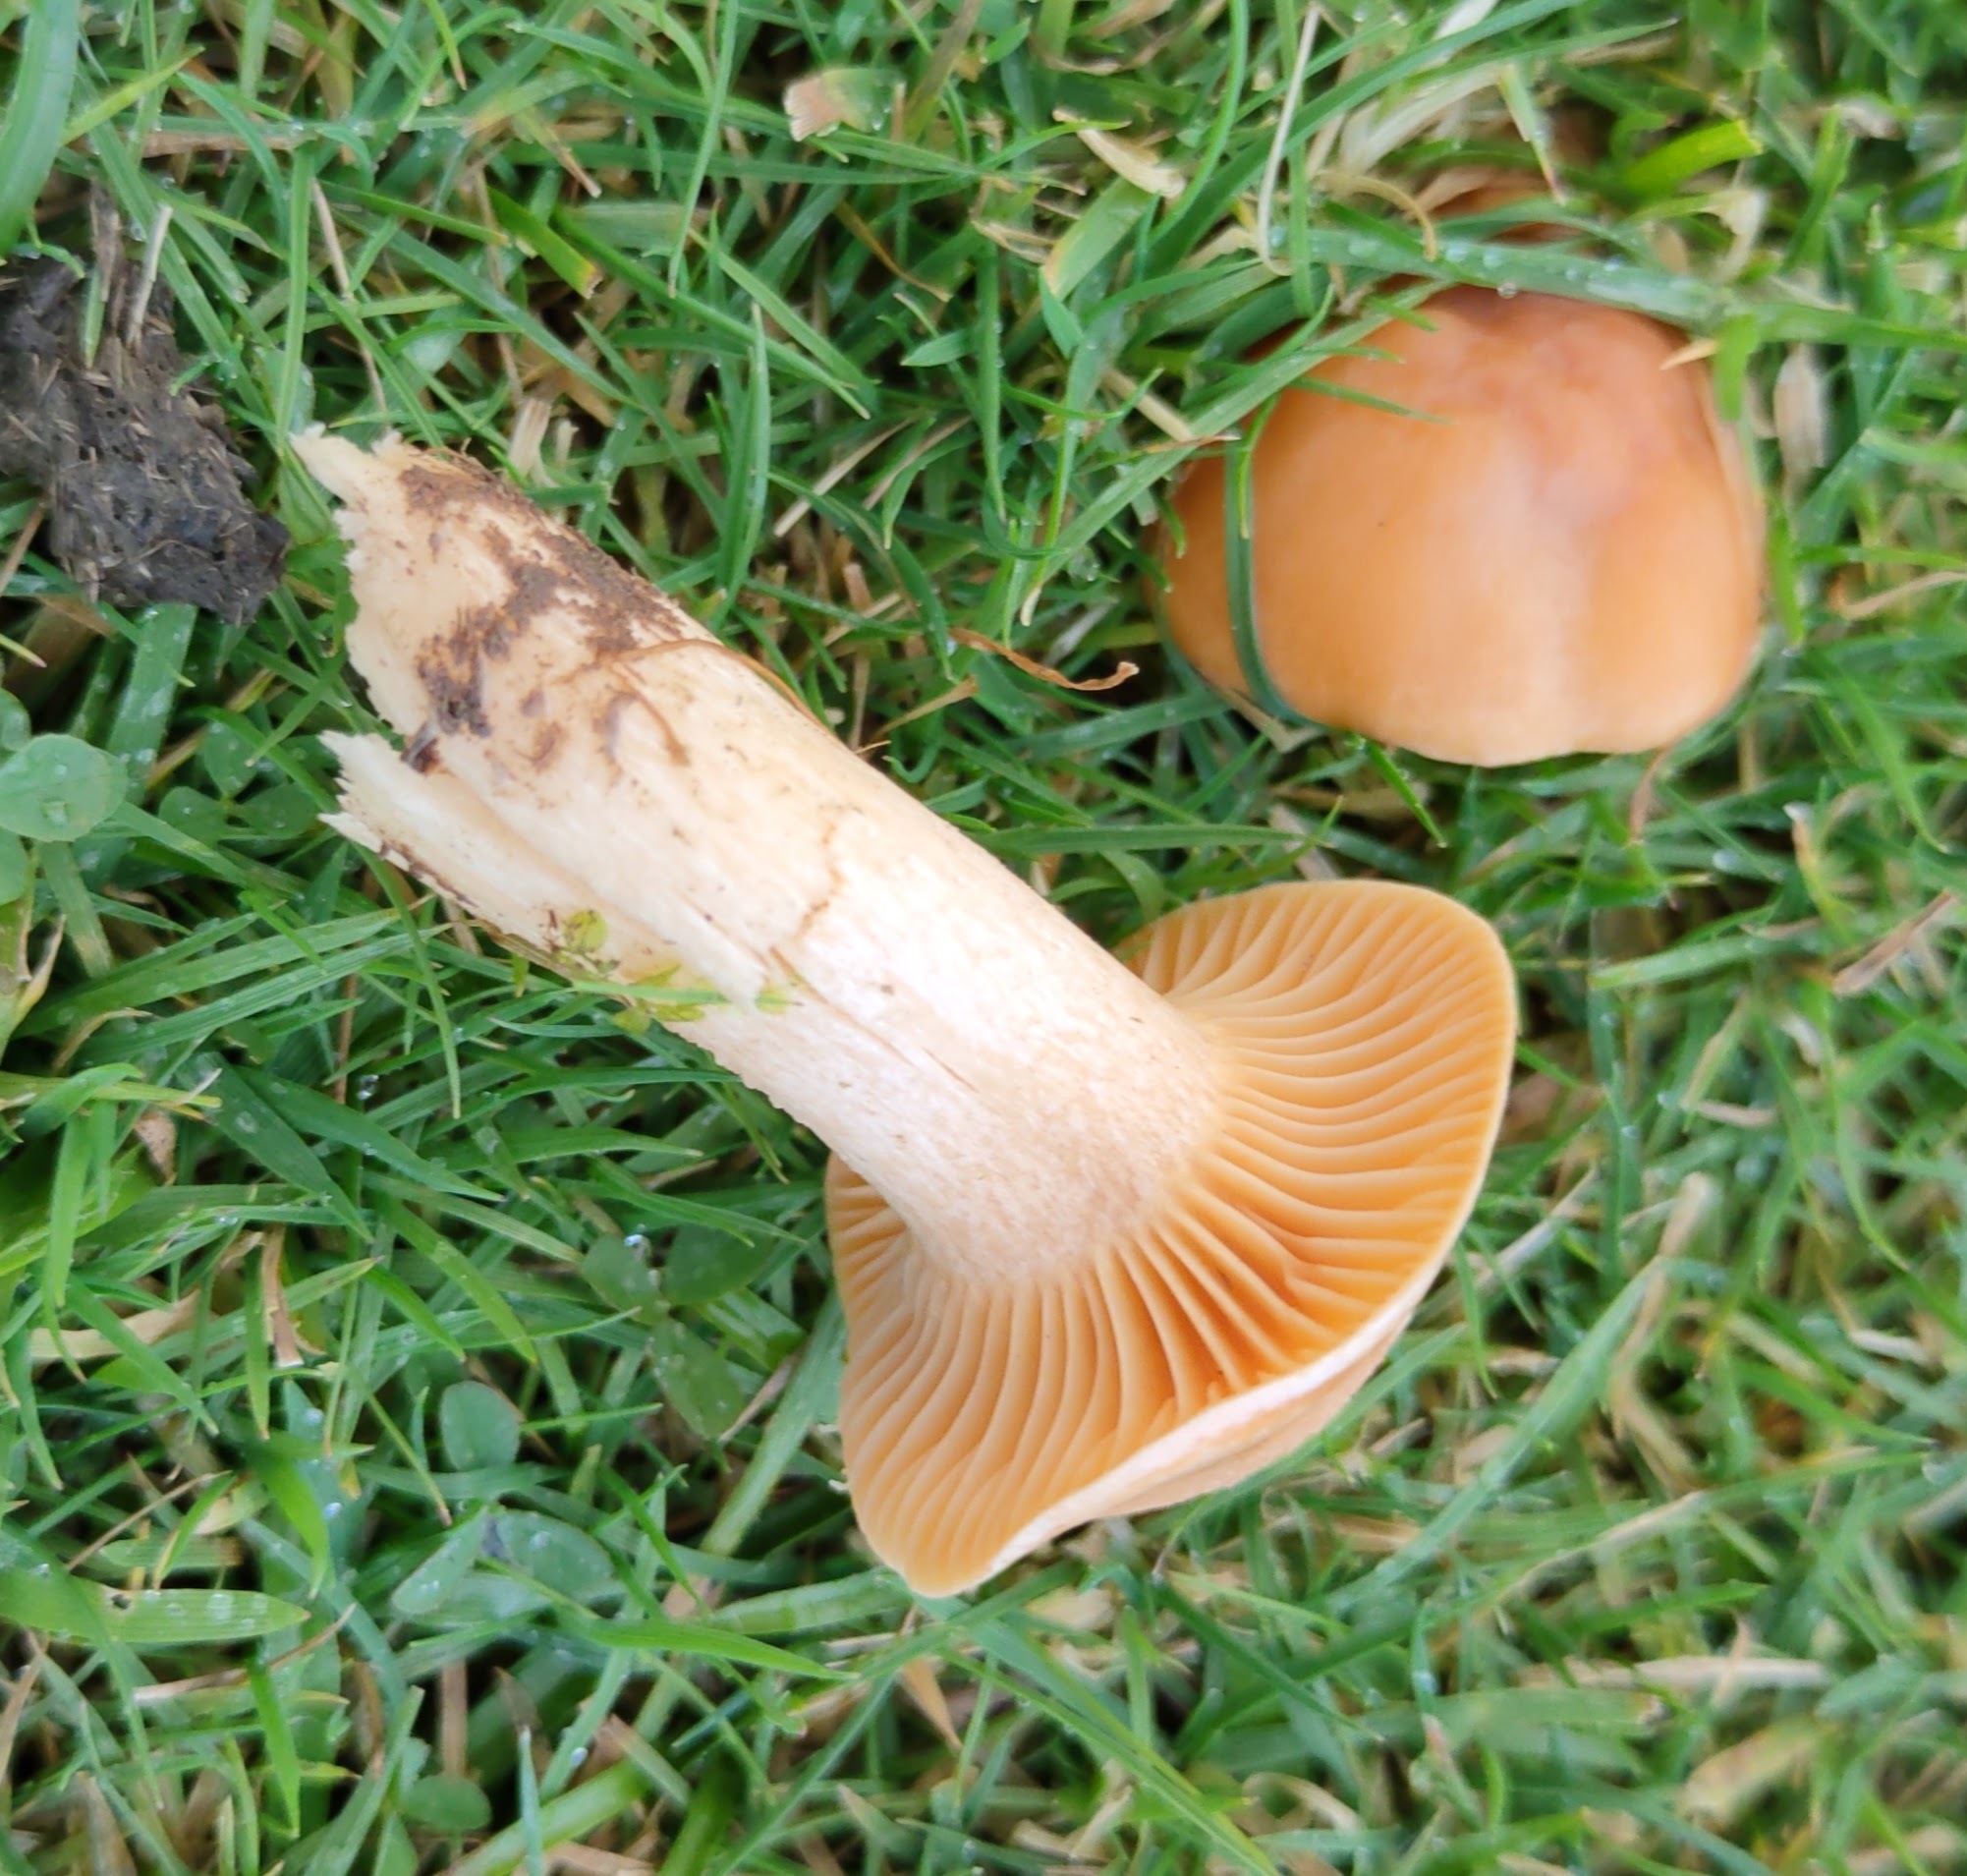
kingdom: Fungi
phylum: Basidiomycota
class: Agaricomycetes
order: Agaricales
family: Hygrophoraceae
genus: Cuphophyllus
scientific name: Cuphophyllus pratensis
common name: Meadow waxcap
